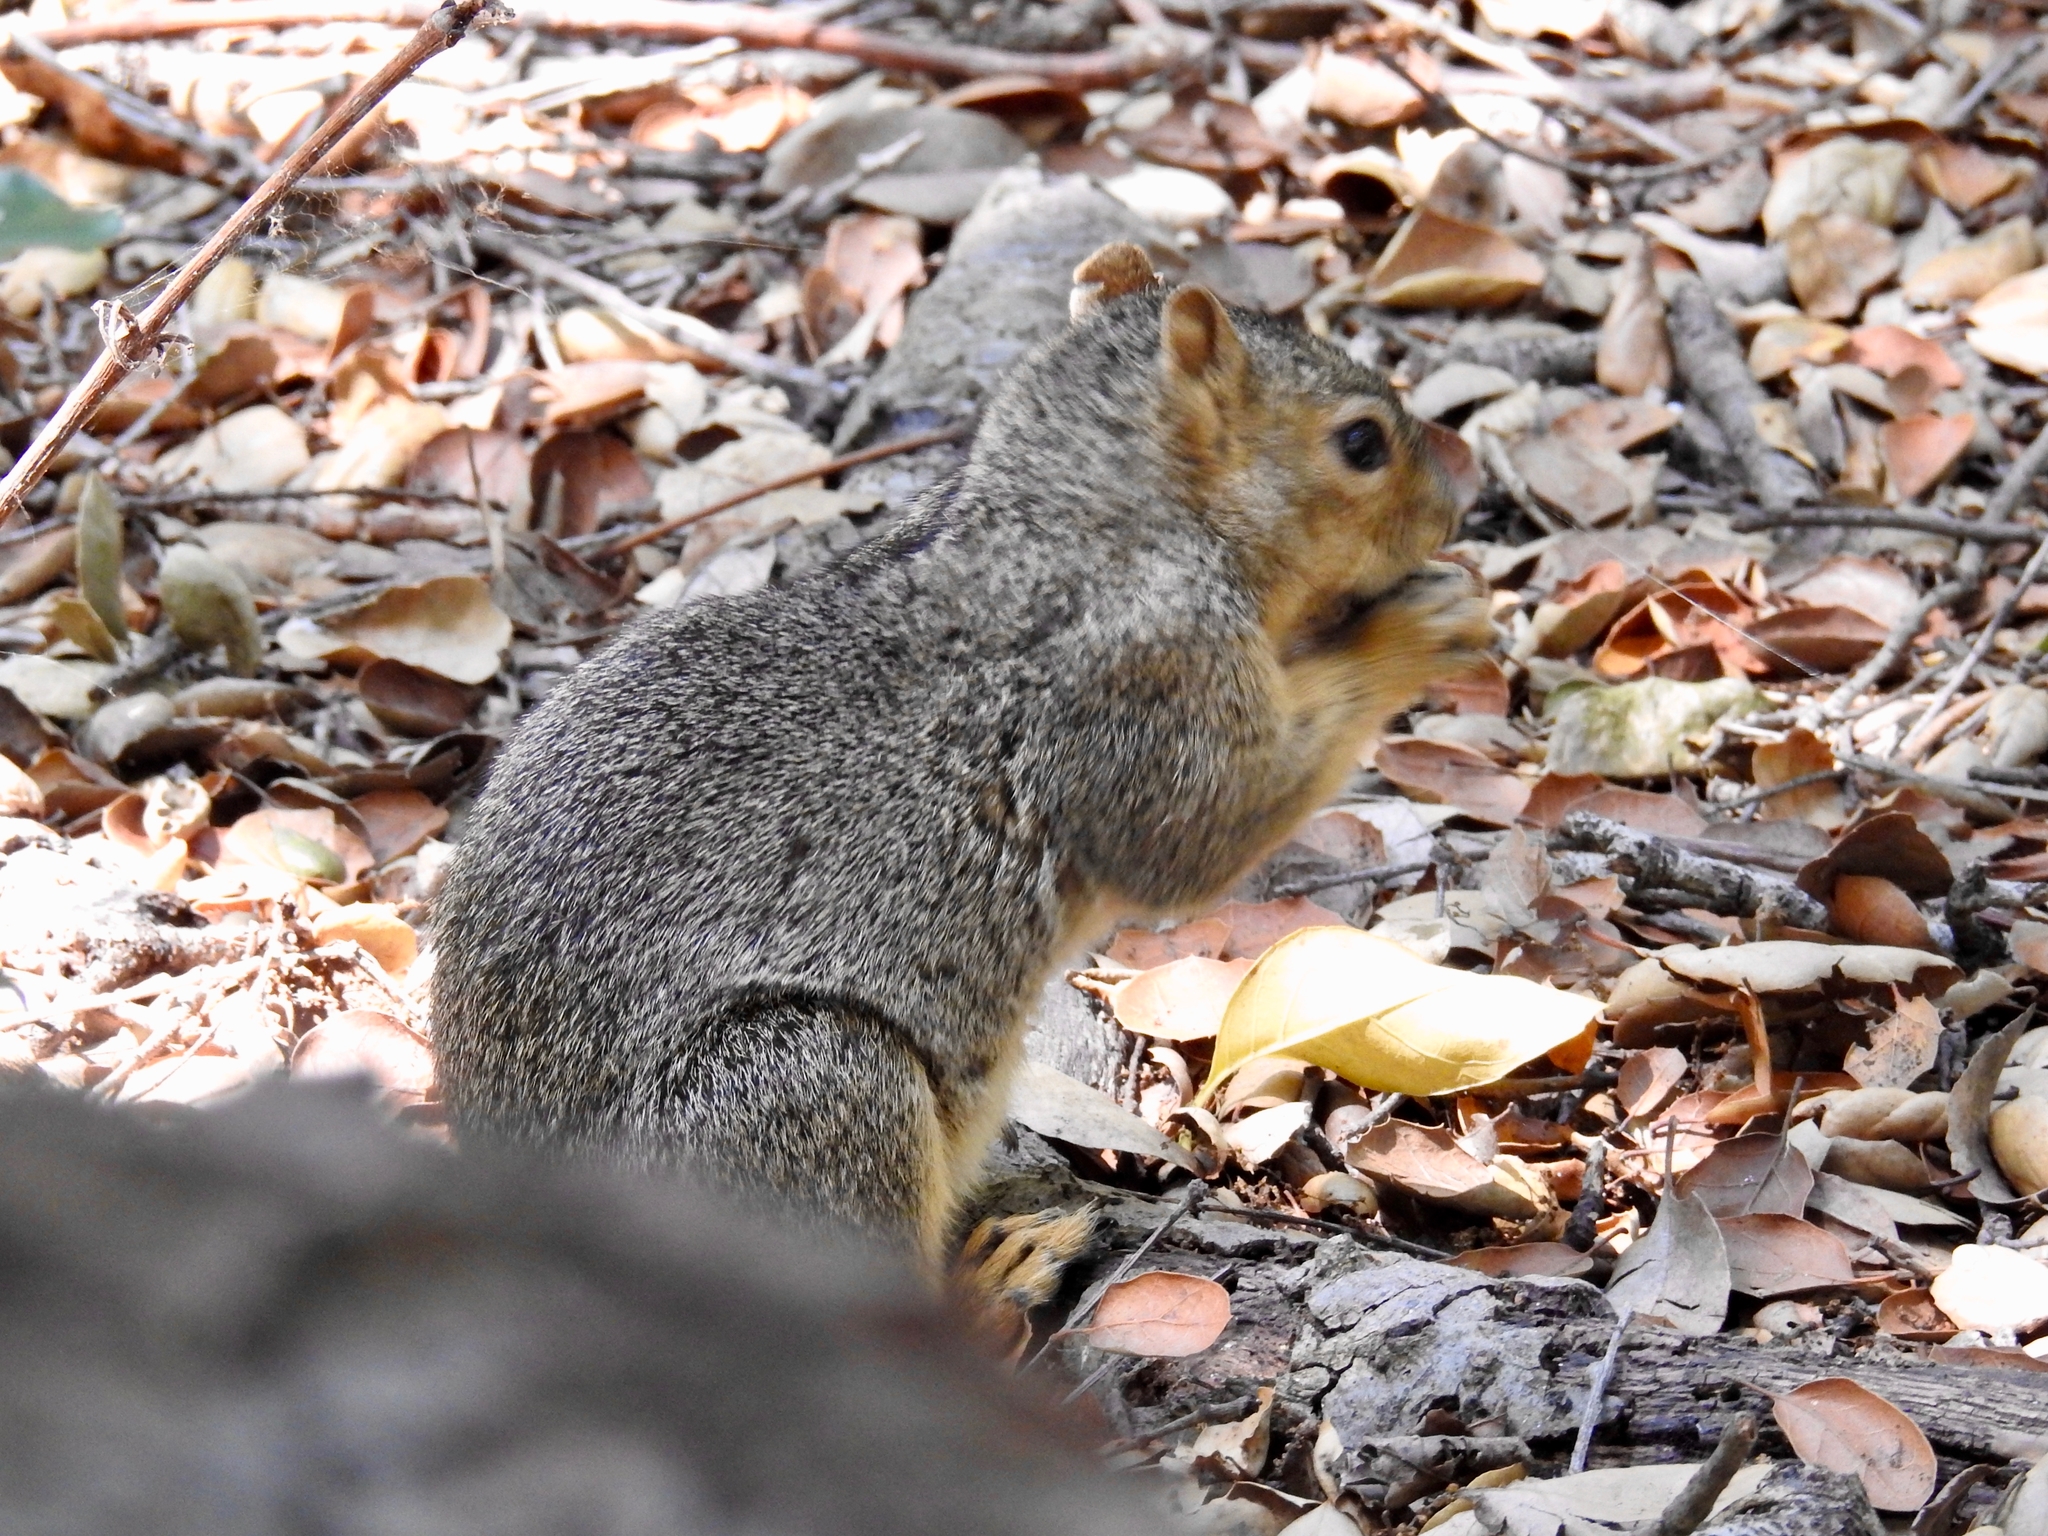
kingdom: Animalia
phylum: Chordata
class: Mammalia
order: Rodentia
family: Sciuridae
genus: Sciurus
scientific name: Sciurus niger
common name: Fox squirrel
